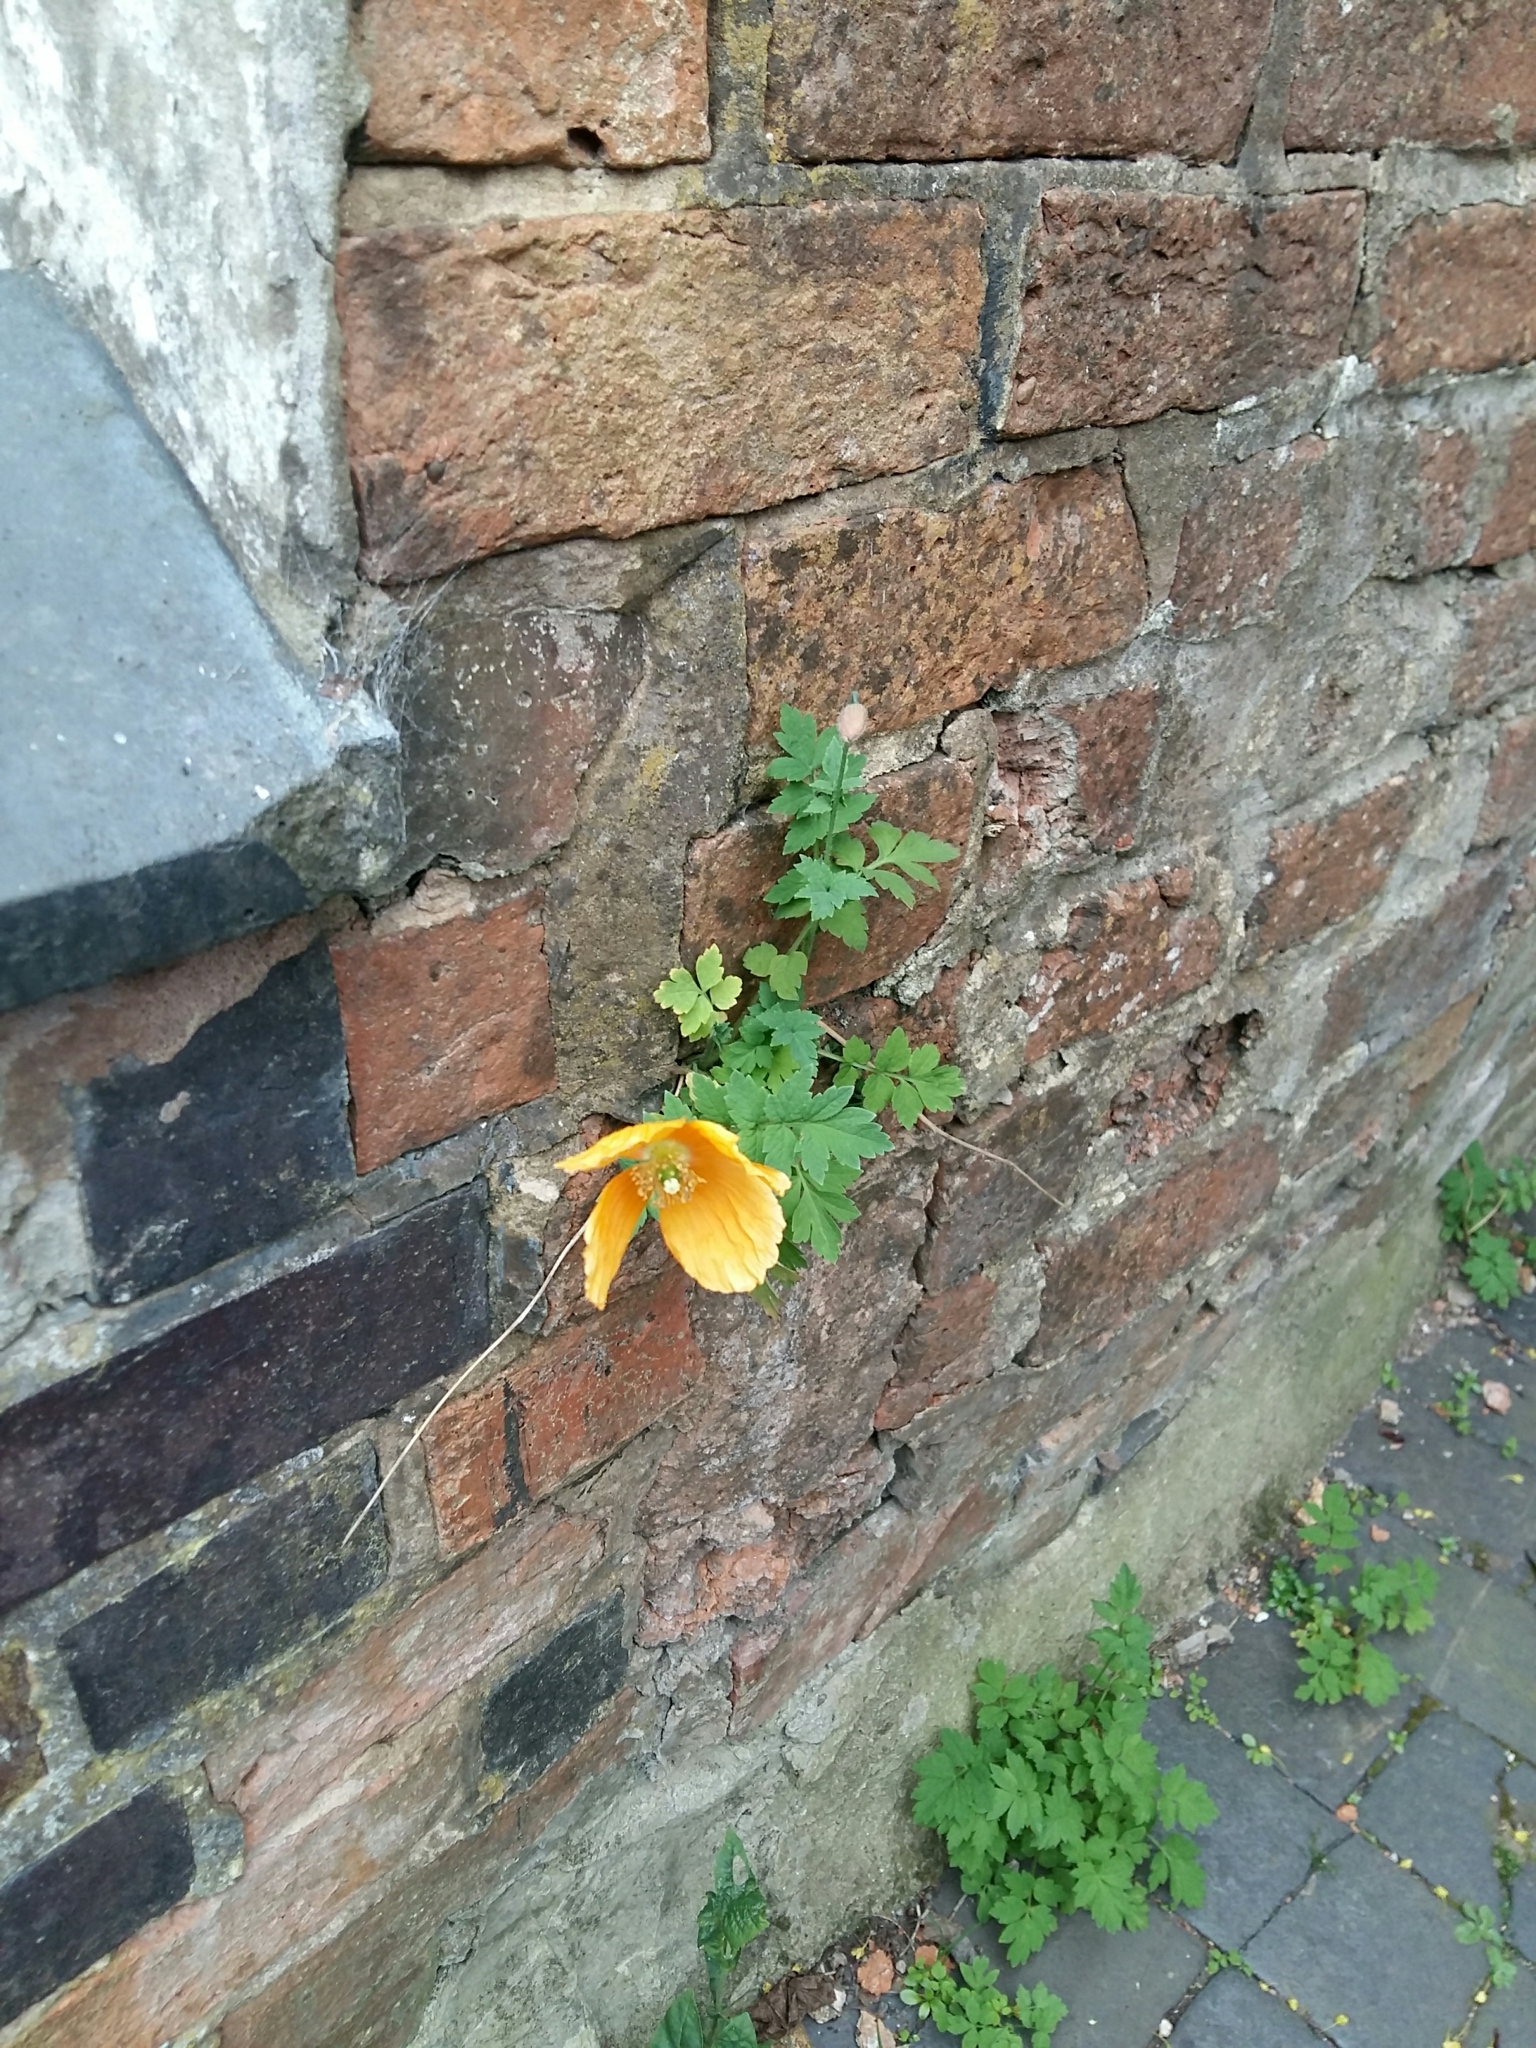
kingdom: Plantae
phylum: Tracheophyta
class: Magnoliopsida
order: Ranunculales
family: Papaveraceae
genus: Papaver
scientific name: Papaver cambricum
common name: Poppy
